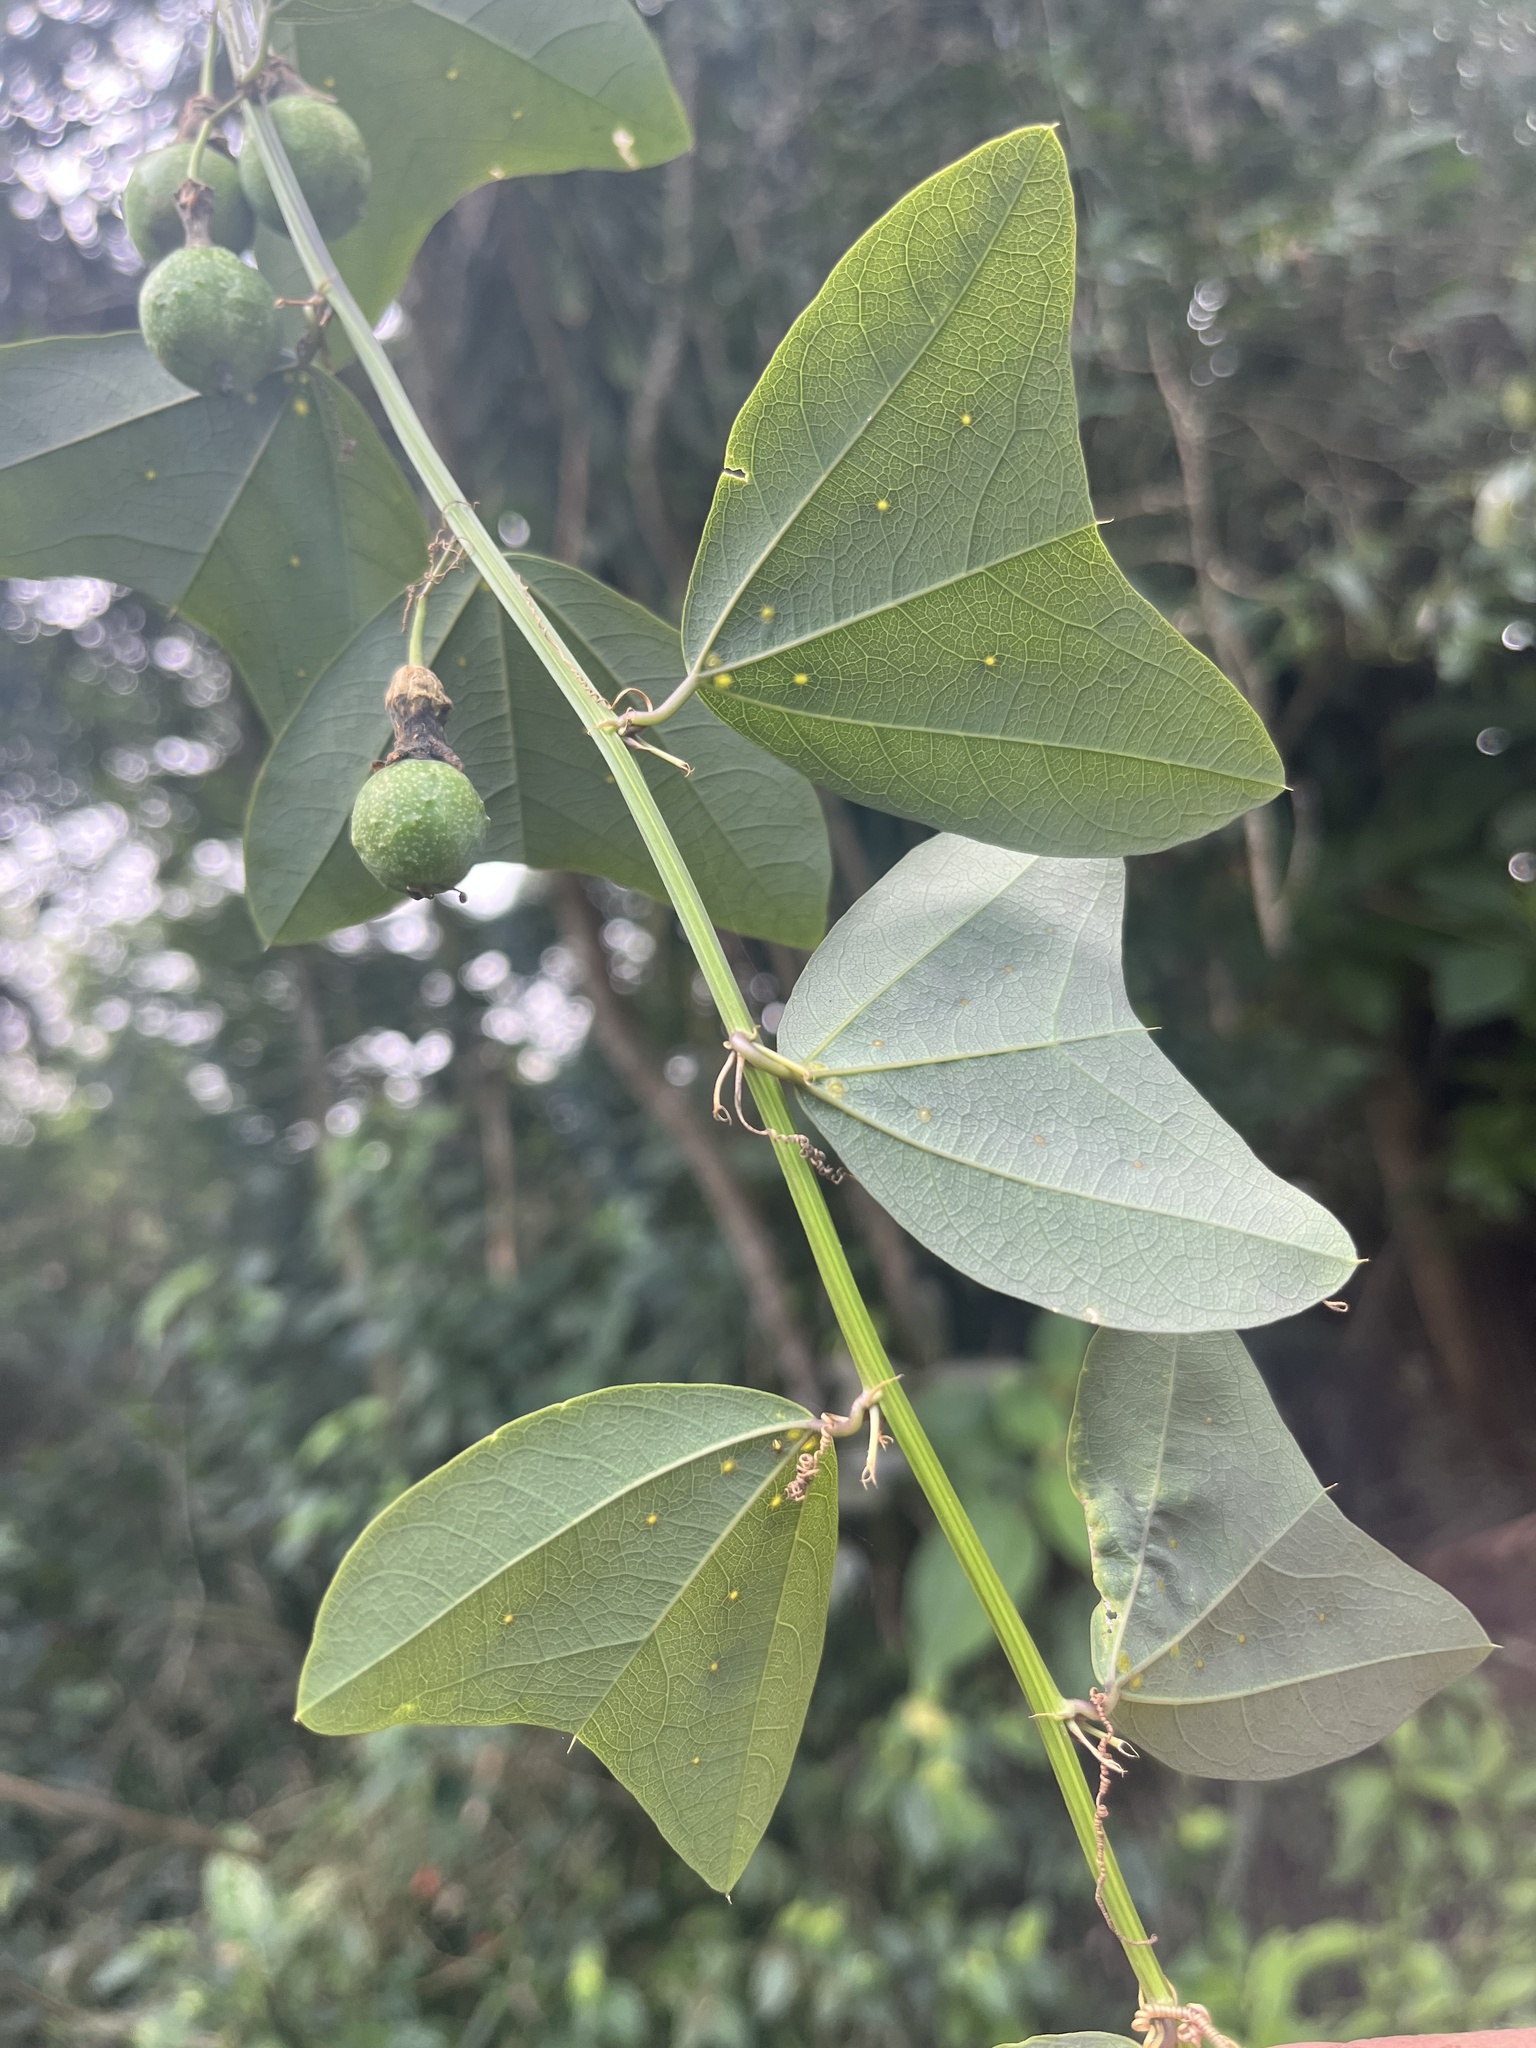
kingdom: Plantae
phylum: Tracheophyta
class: Magnoliopsida
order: Malpighiales
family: Passifloraceae
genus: Passiflora
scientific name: Passiflora biflora
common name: Twoflower passionflower
